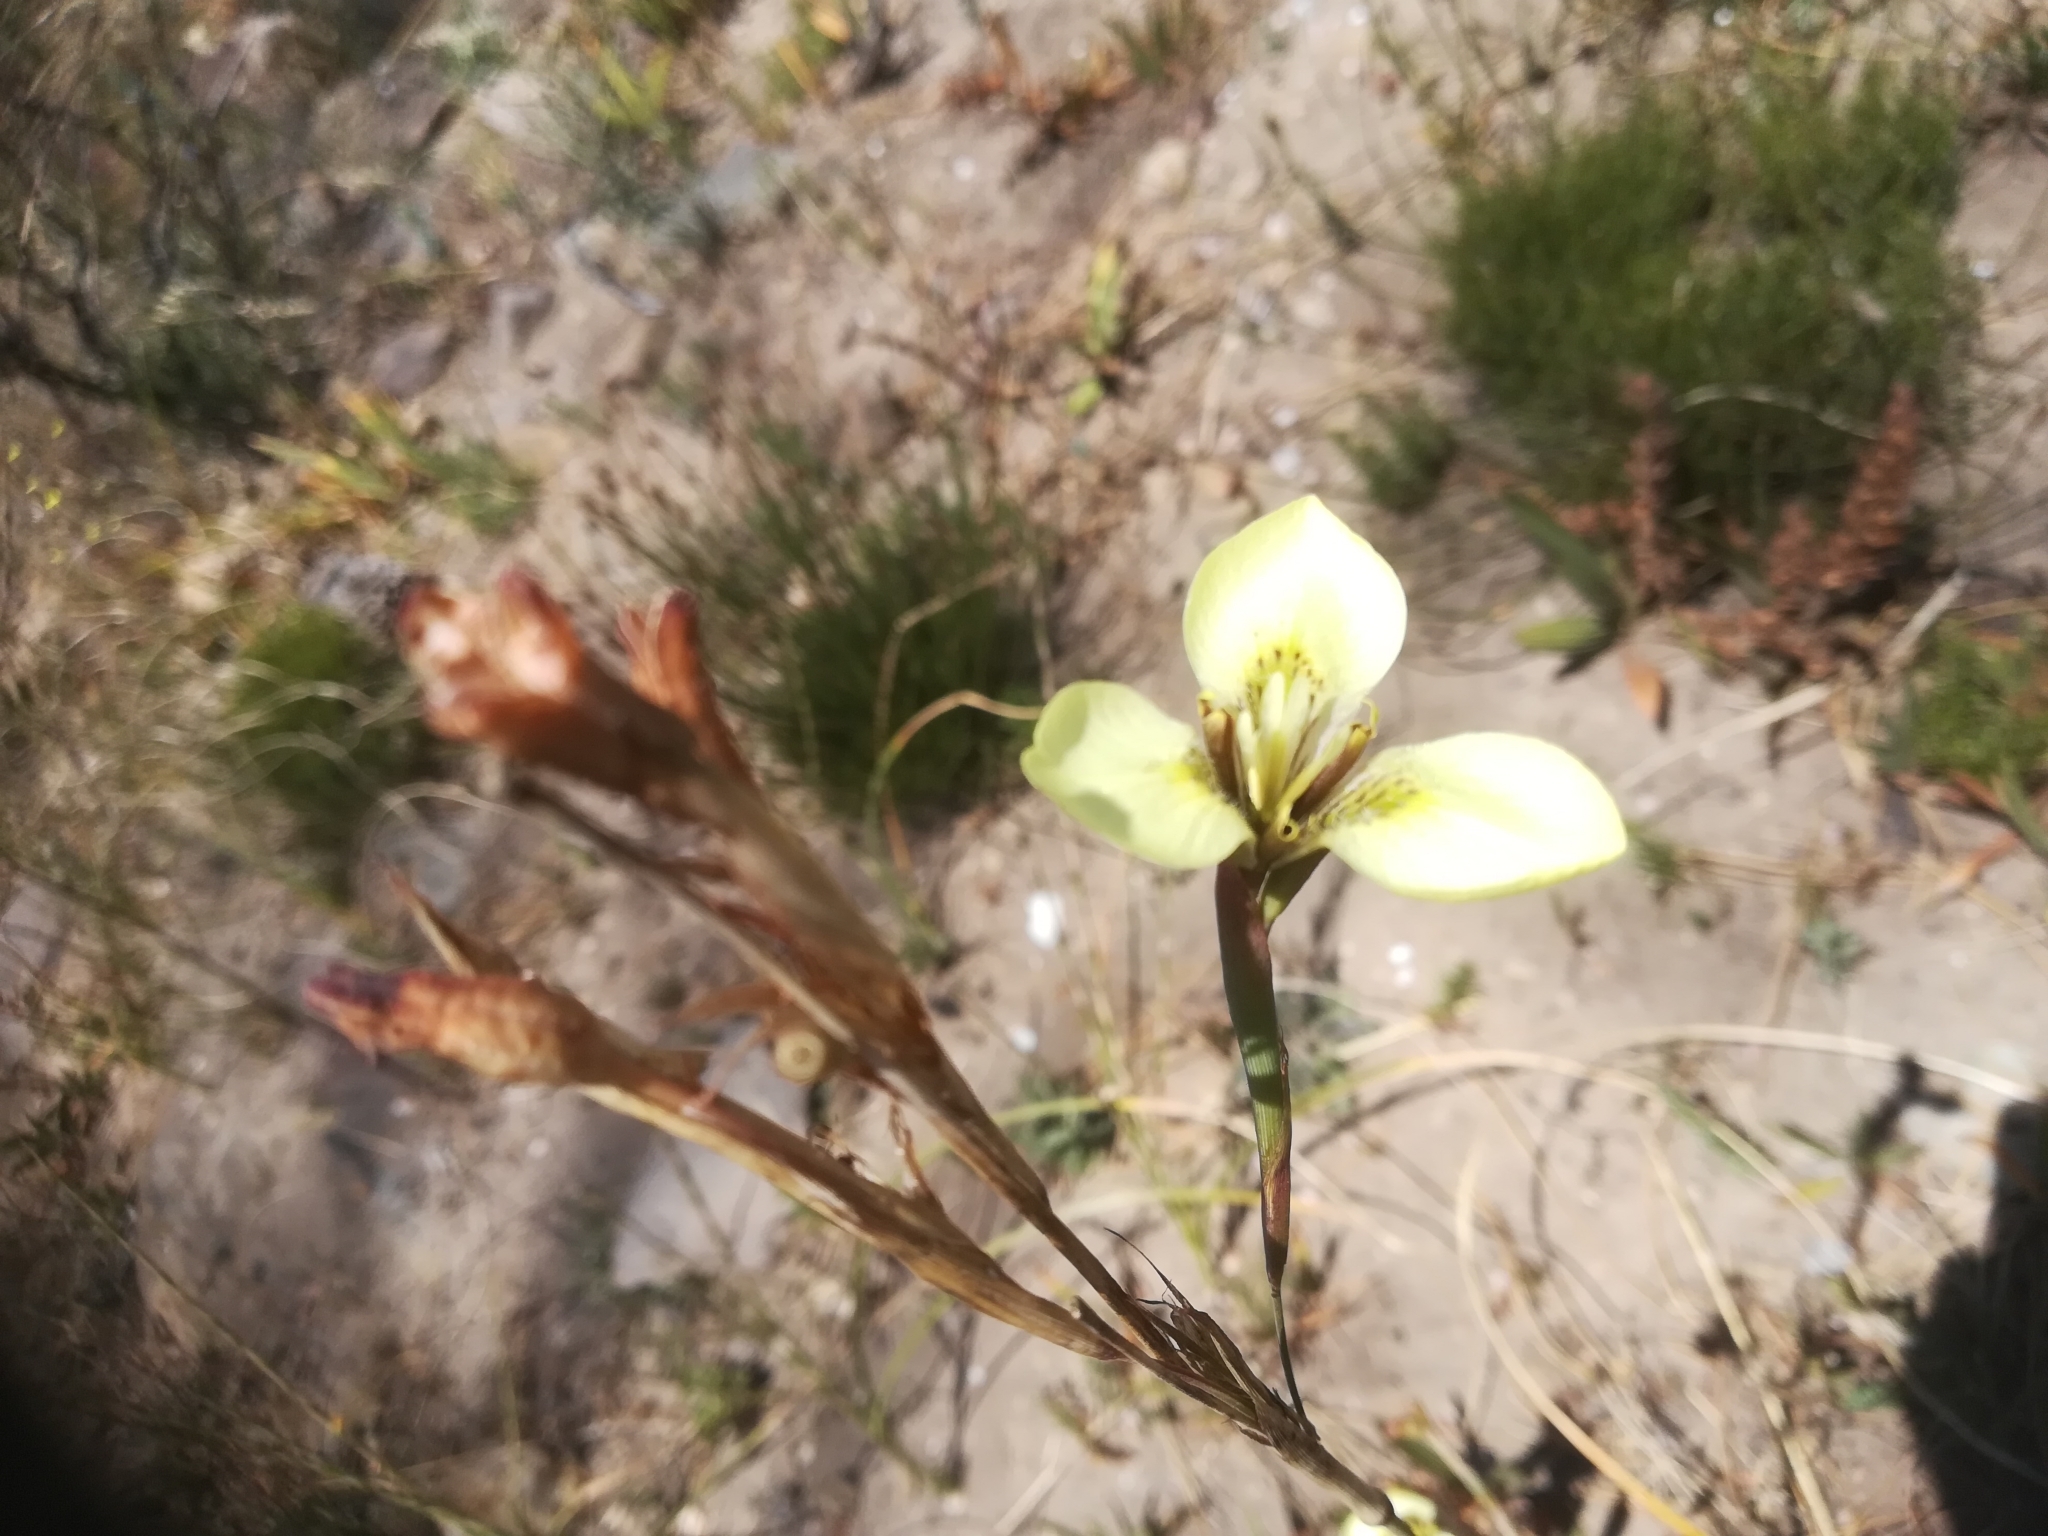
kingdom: Plantae
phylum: Tracheophyta
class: Liliopsida
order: Asparagales
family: Iridaceae
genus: Moraea
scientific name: Moraea bellendenii
